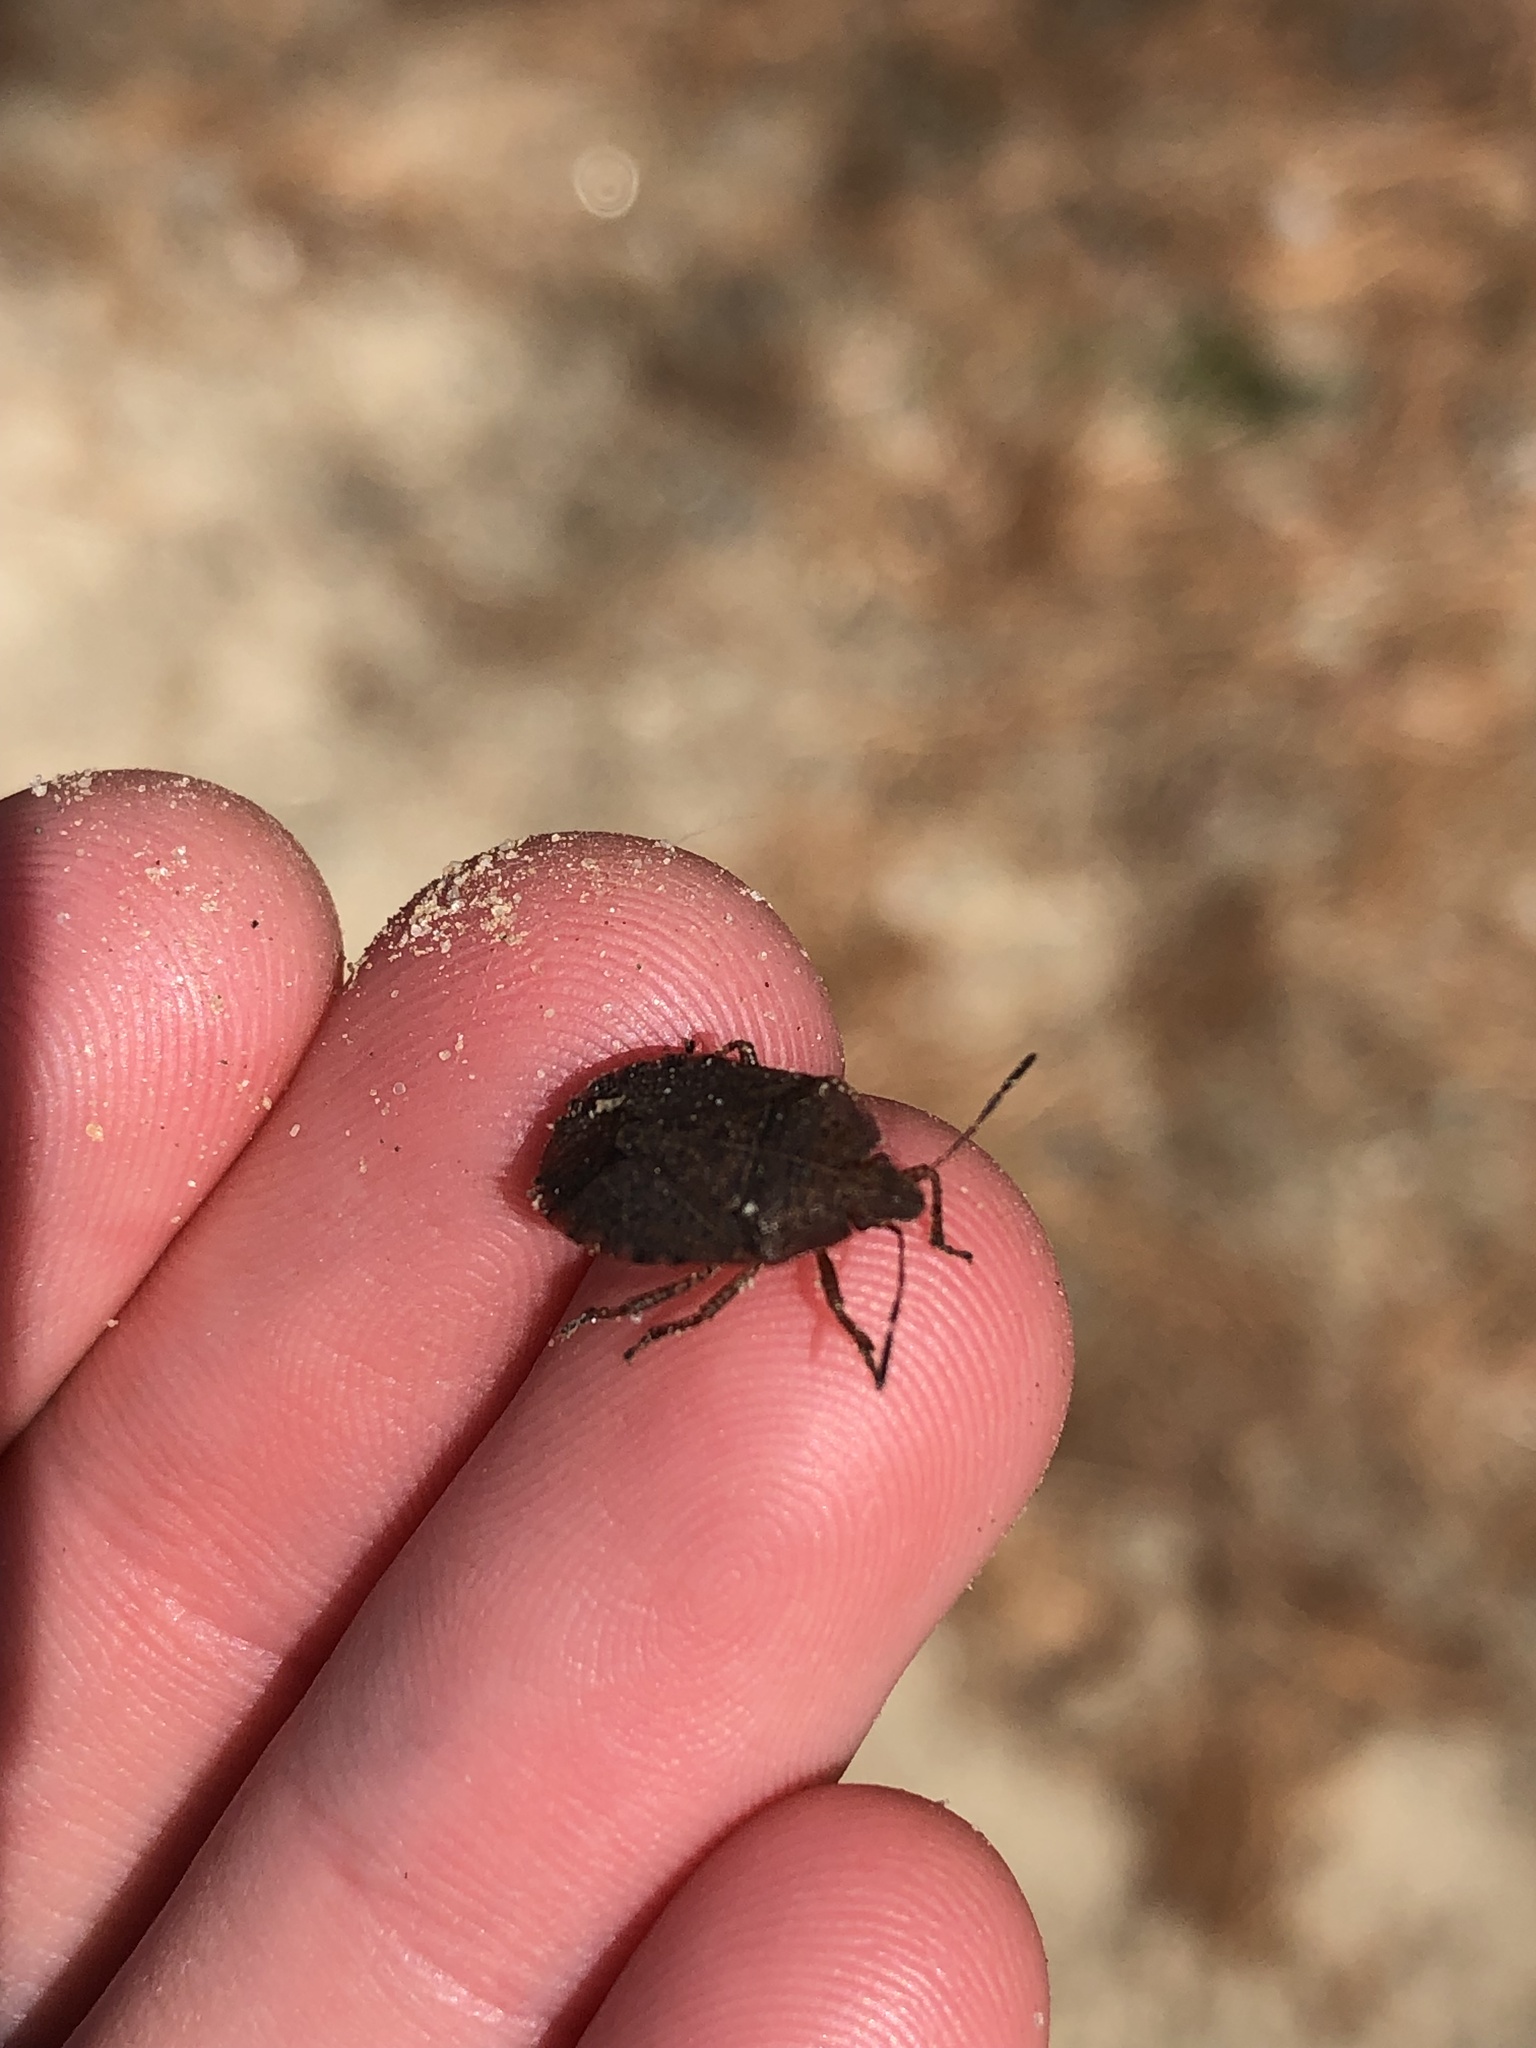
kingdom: Animalia
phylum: Arthropoda
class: Insecta
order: Hemiptera
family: Pentatomidae
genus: Menecles
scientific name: Menecles insertus
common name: Elf shoe stink bug
